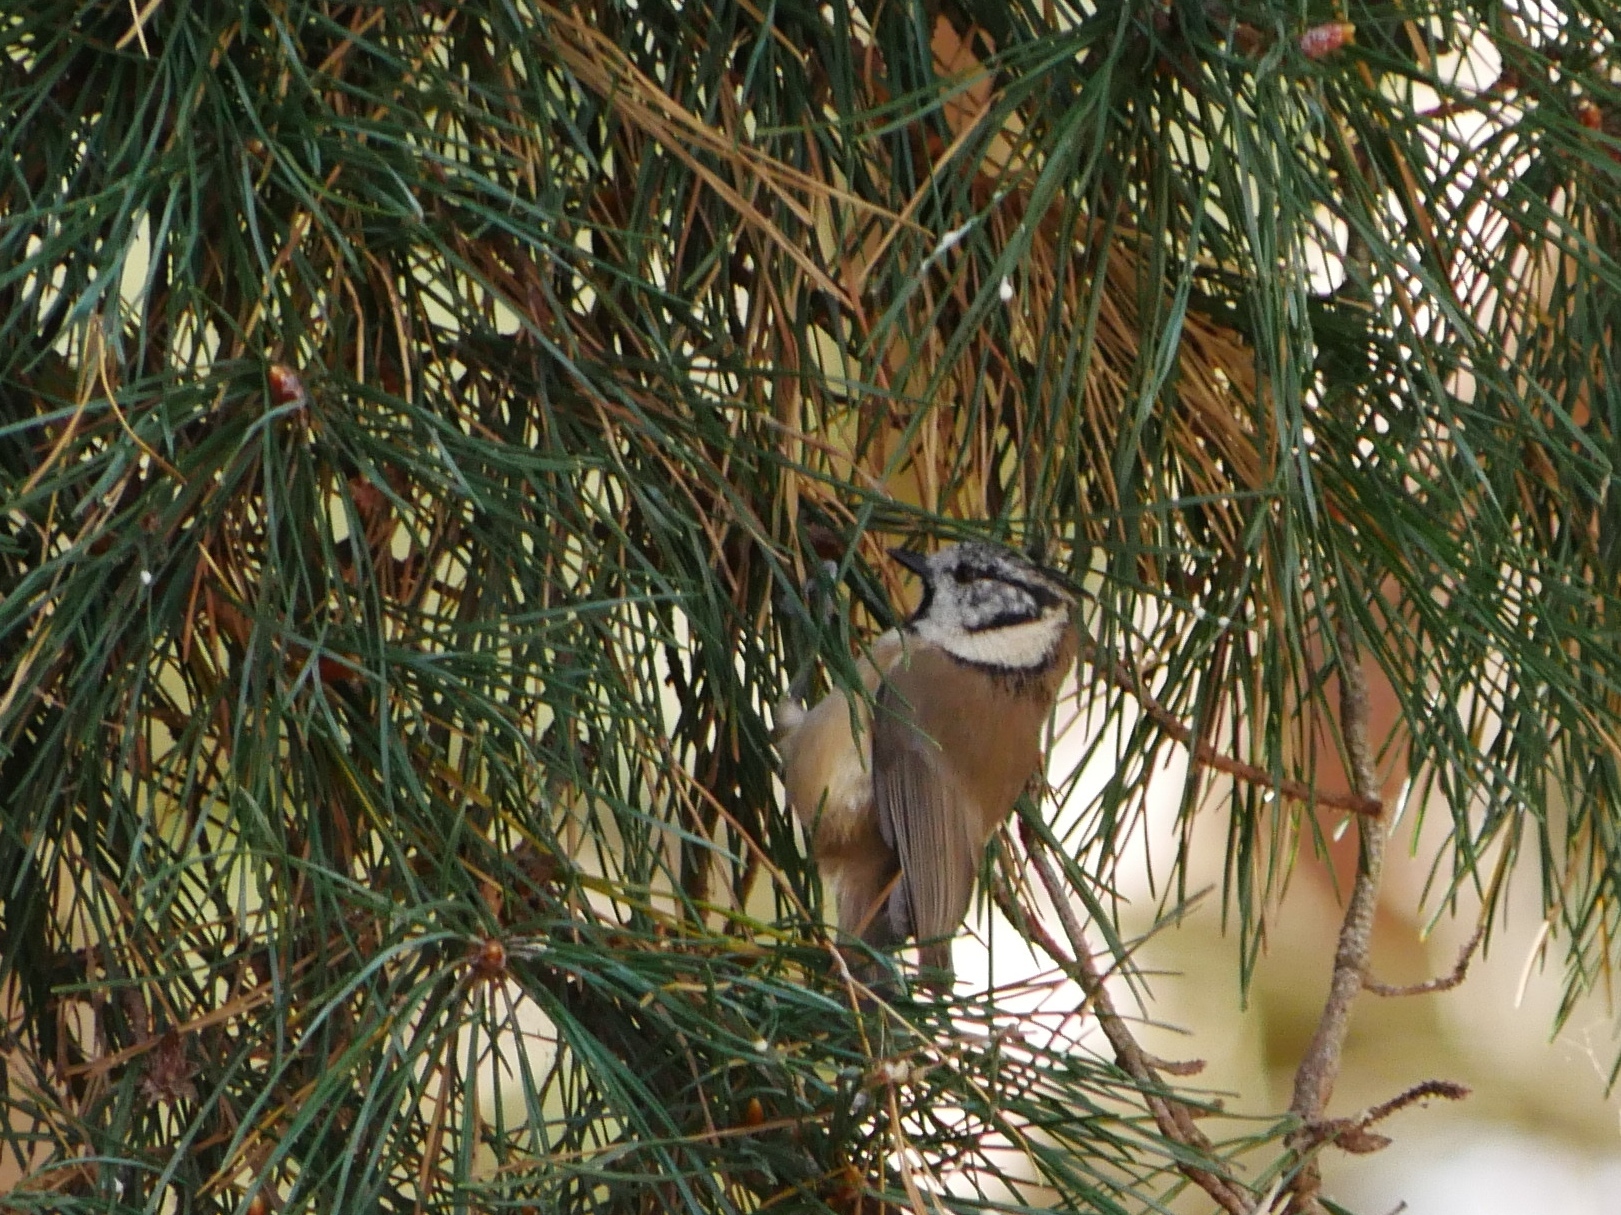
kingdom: Animalia
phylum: Chordata
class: Aves
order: Passeriformes
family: Paridae
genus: Lophophanes
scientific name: Lophophanes cristatus
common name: European crested tit
